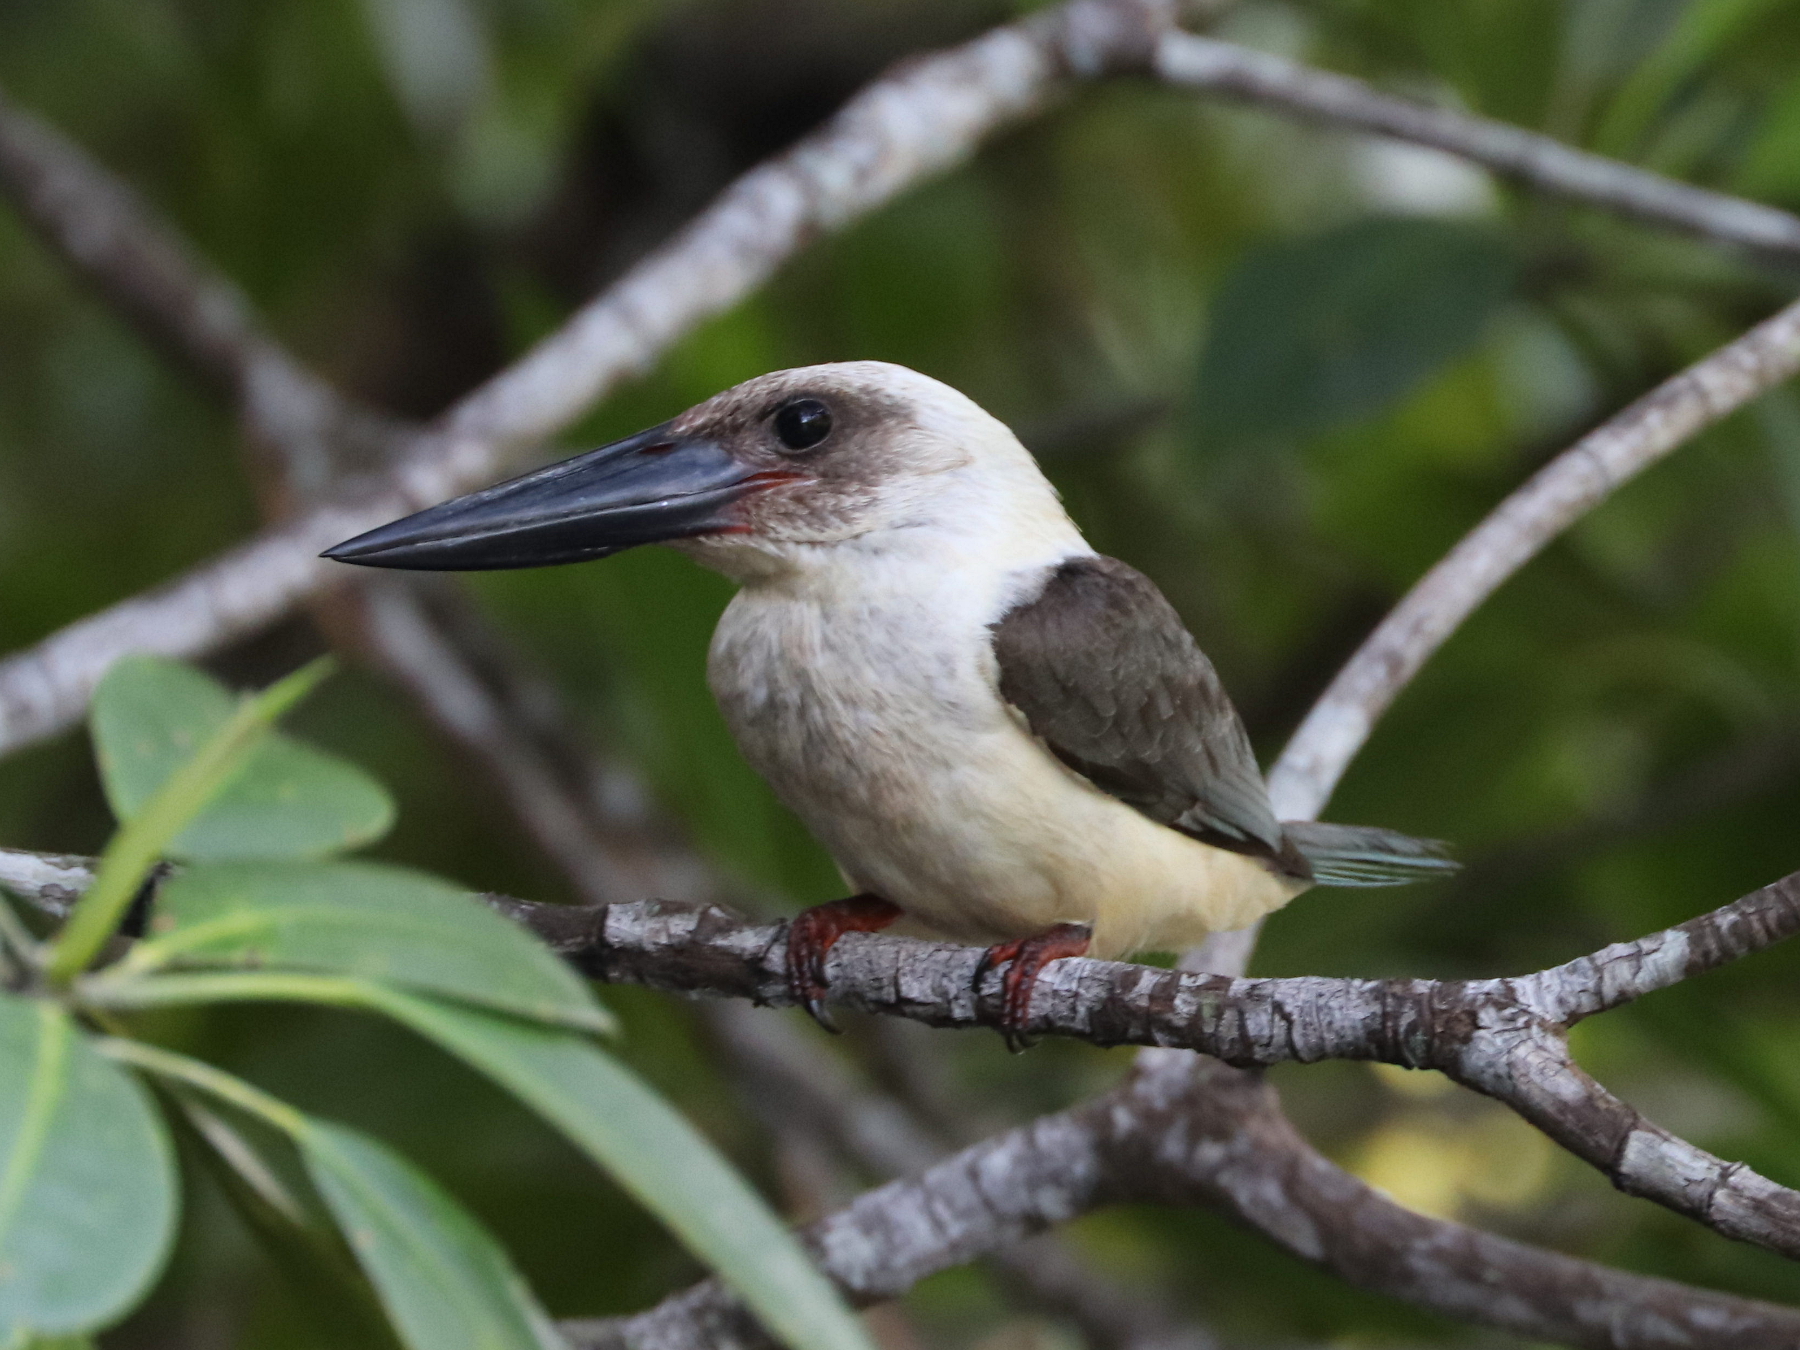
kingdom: Animalia
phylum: Chordata
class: Aves
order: Coraciiformes
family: Alcedinidae
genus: Pelargopsis
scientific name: Pelargopsis melanorhyncha
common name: Great-billed kingfisher
